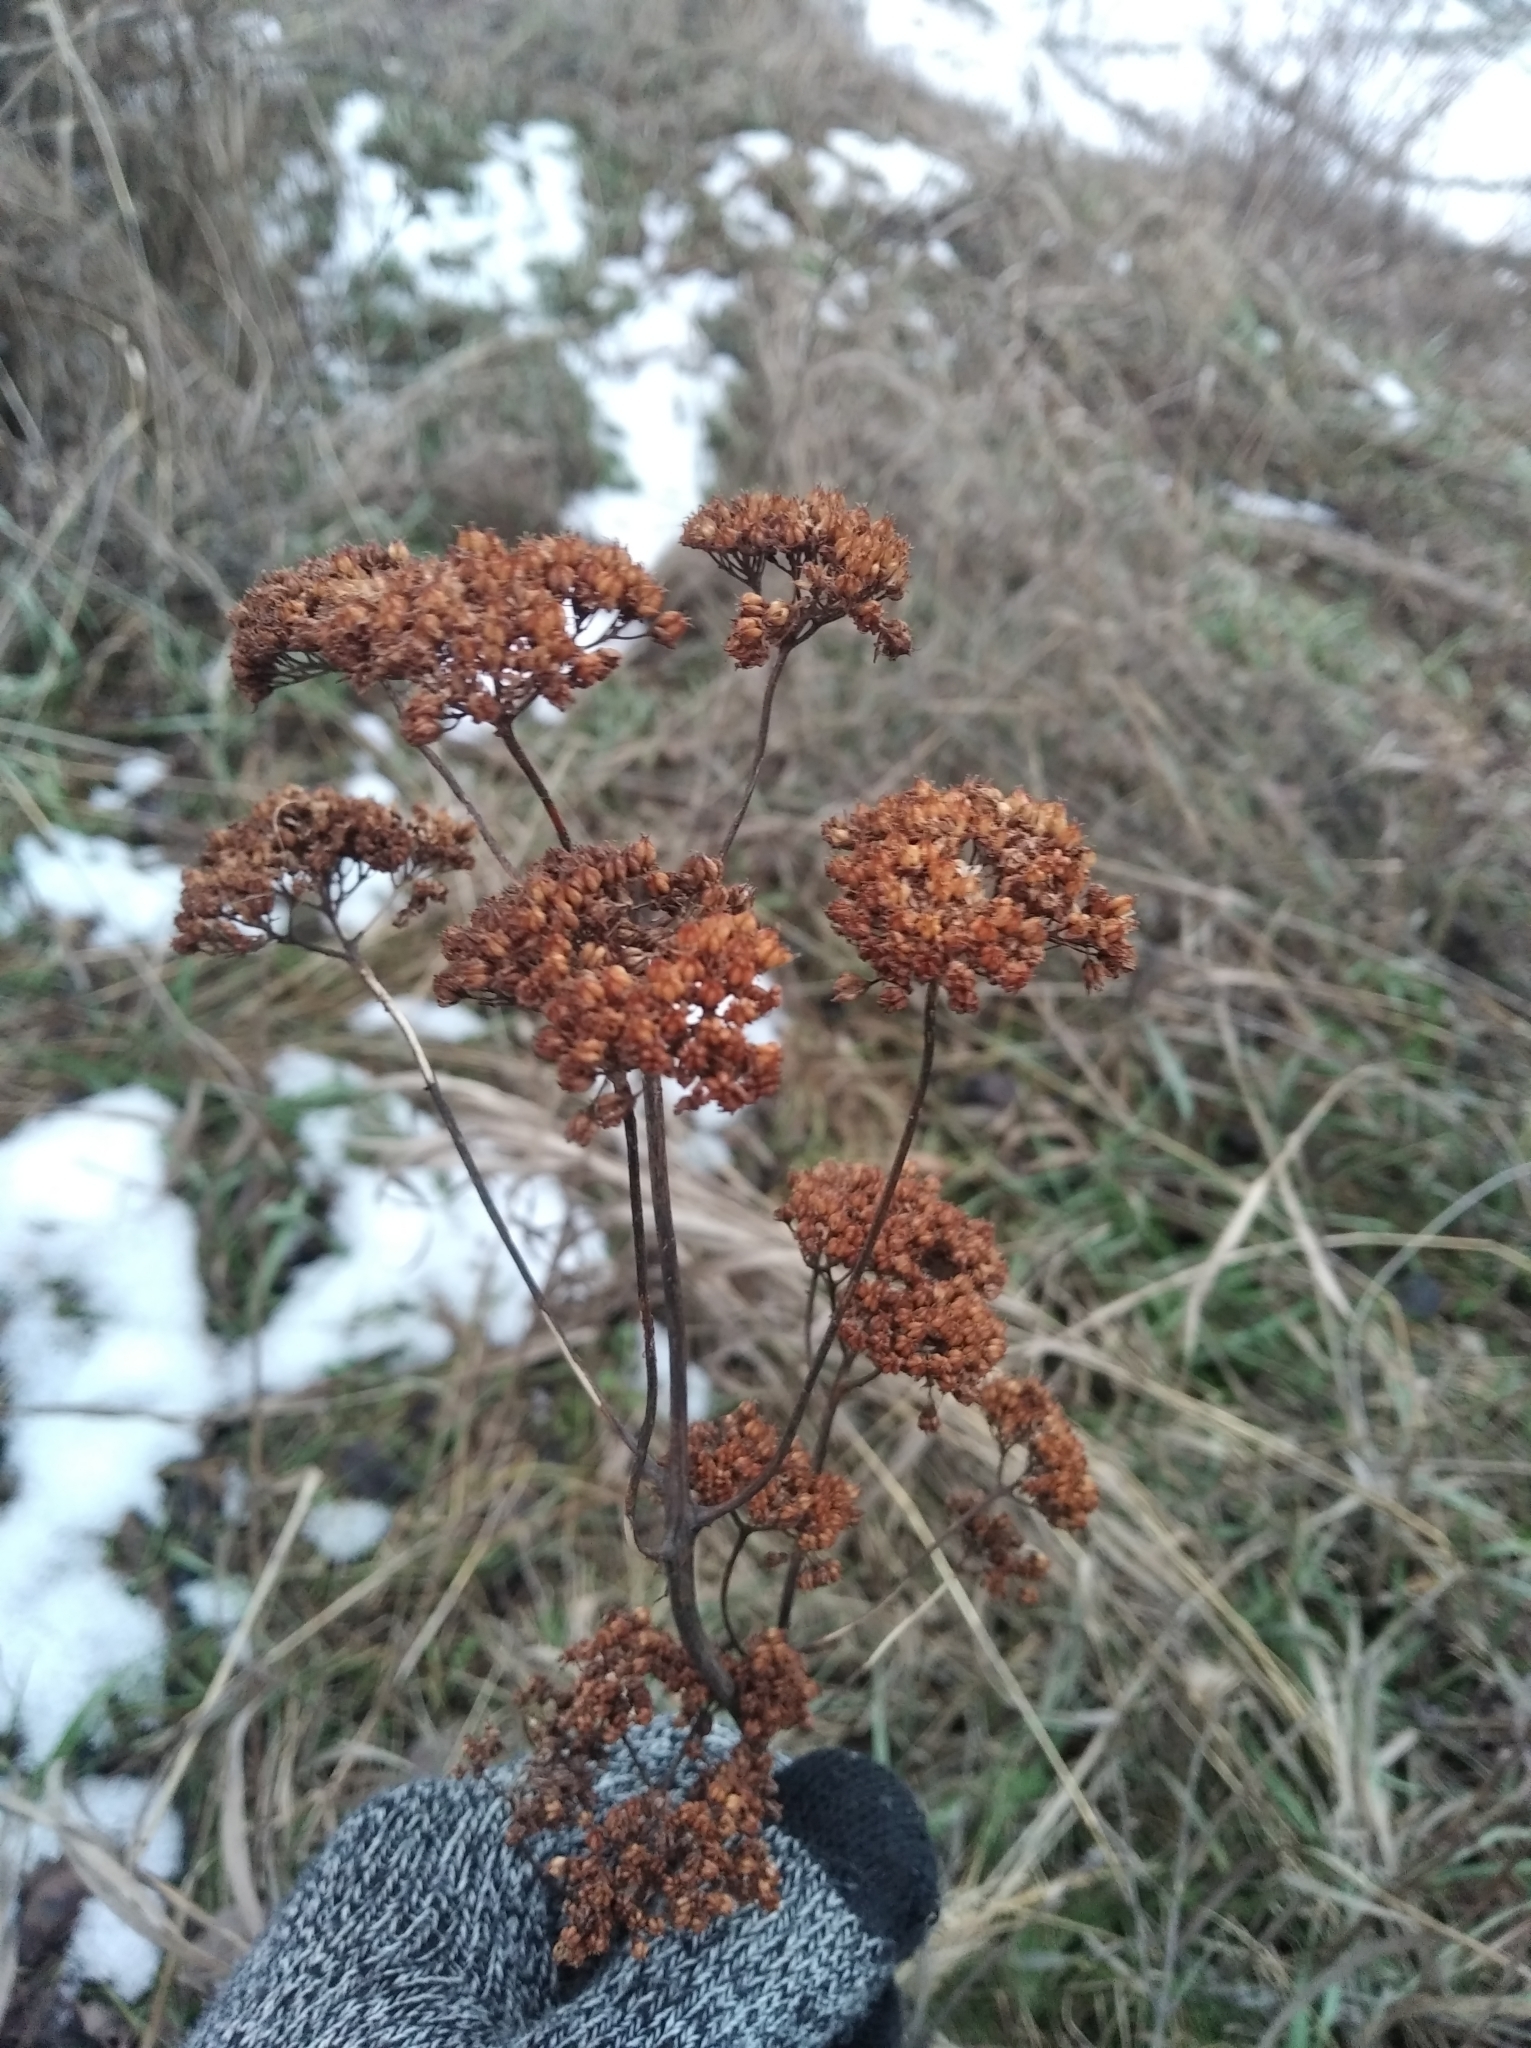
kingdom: Plantae
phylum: Tracheophyta
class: Magnoliopsida
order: Saxifragales
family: Crassulaceae
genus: Hylotelephium
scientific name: Hylotelephium
